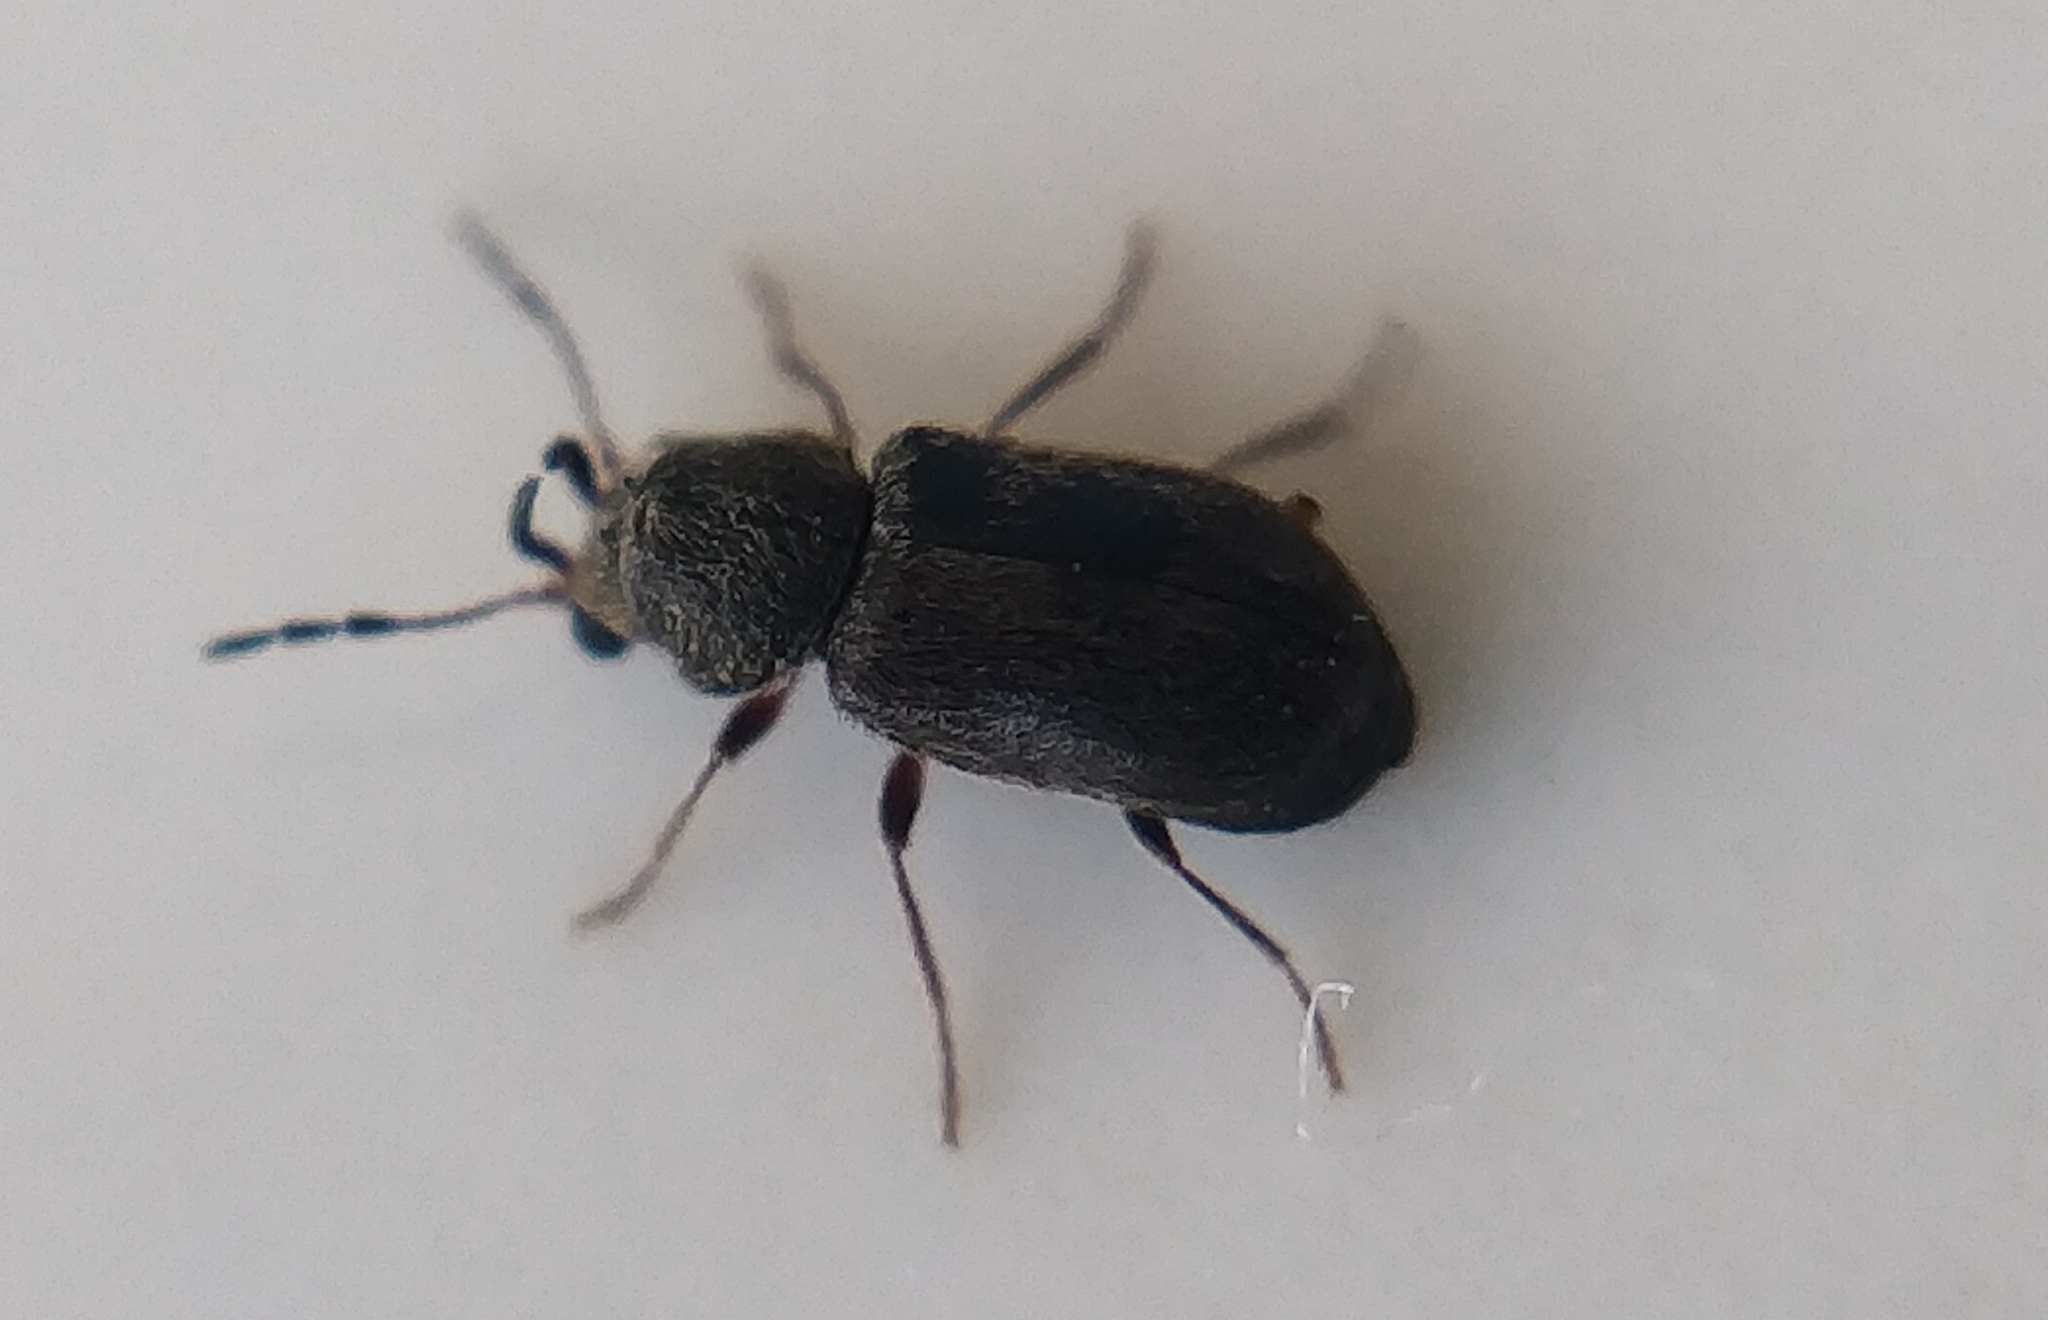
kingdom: Animalia
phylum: Arthropoda
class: Insecta
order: Coleoptera
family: Anobiidae
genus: Ozognathus
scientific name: Ozognathus cornutus
